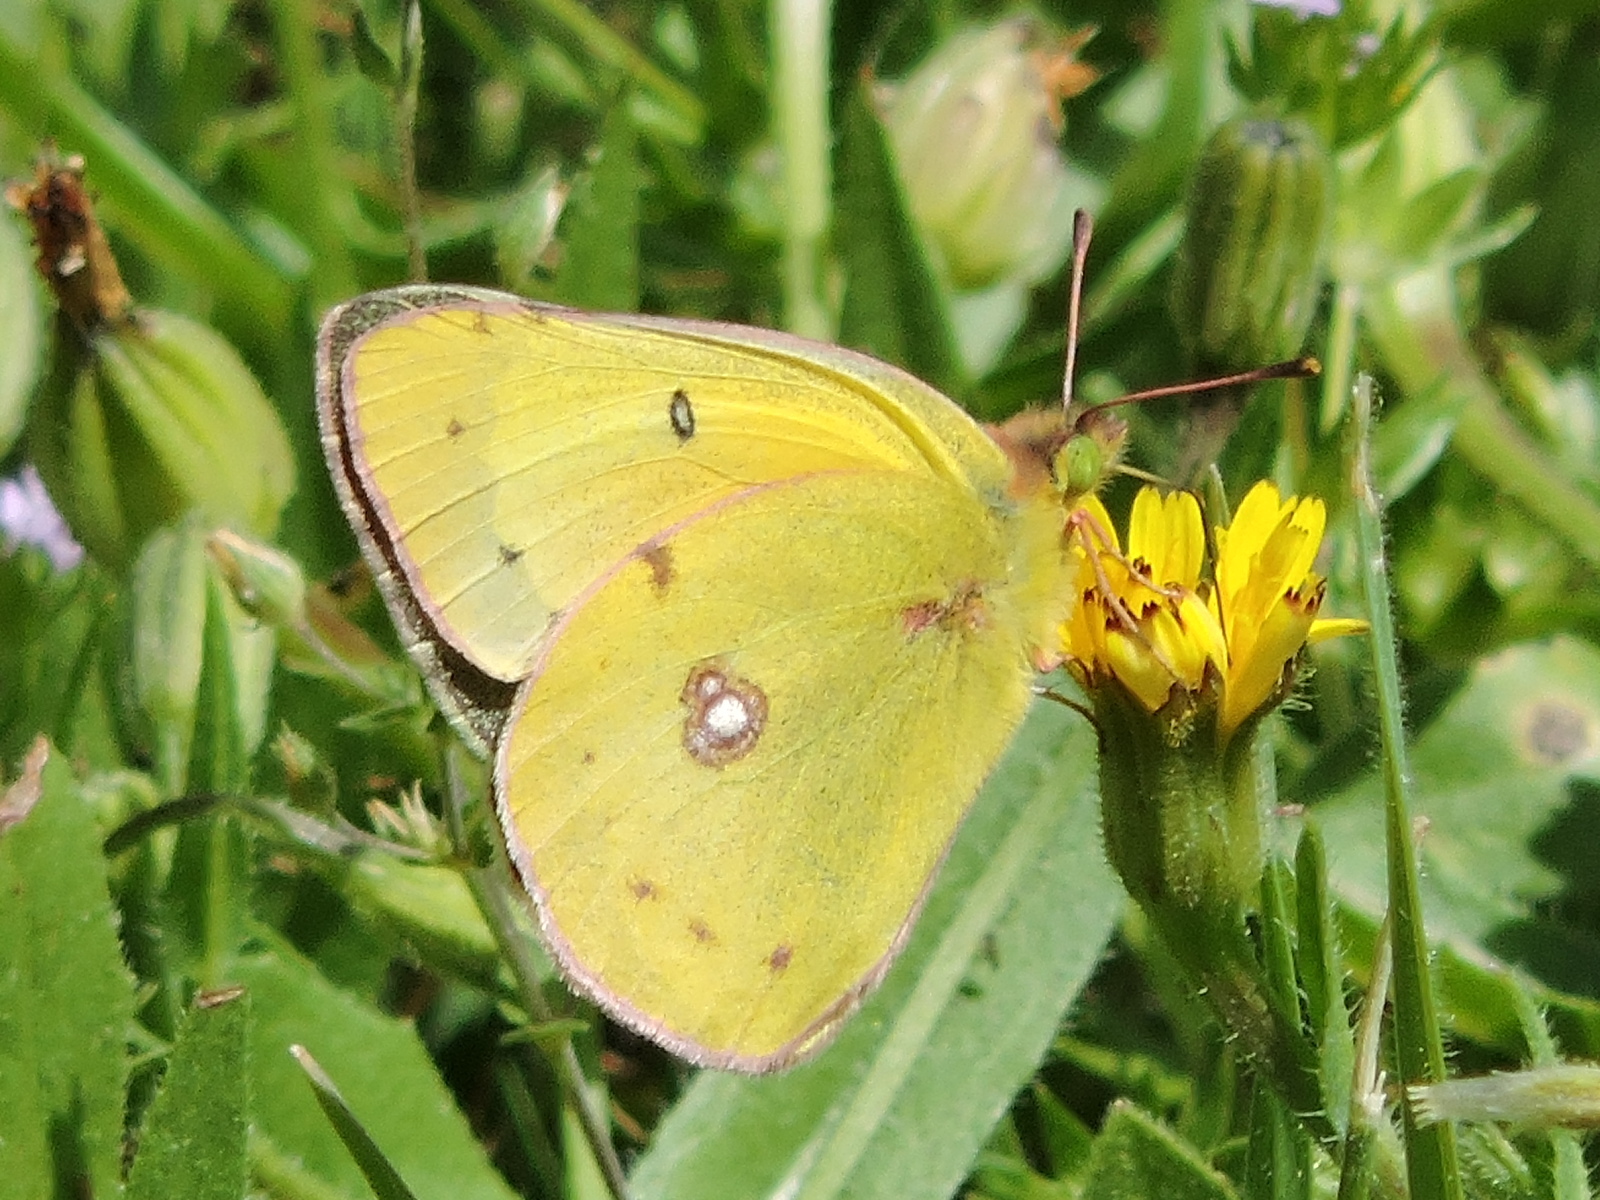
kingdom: Animalia
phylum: Arthropoda
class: Insecta
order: Lepidoptera
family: Pieridae
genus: Colias
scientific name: Colias eurytheme
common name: Alfalfa butterfly
